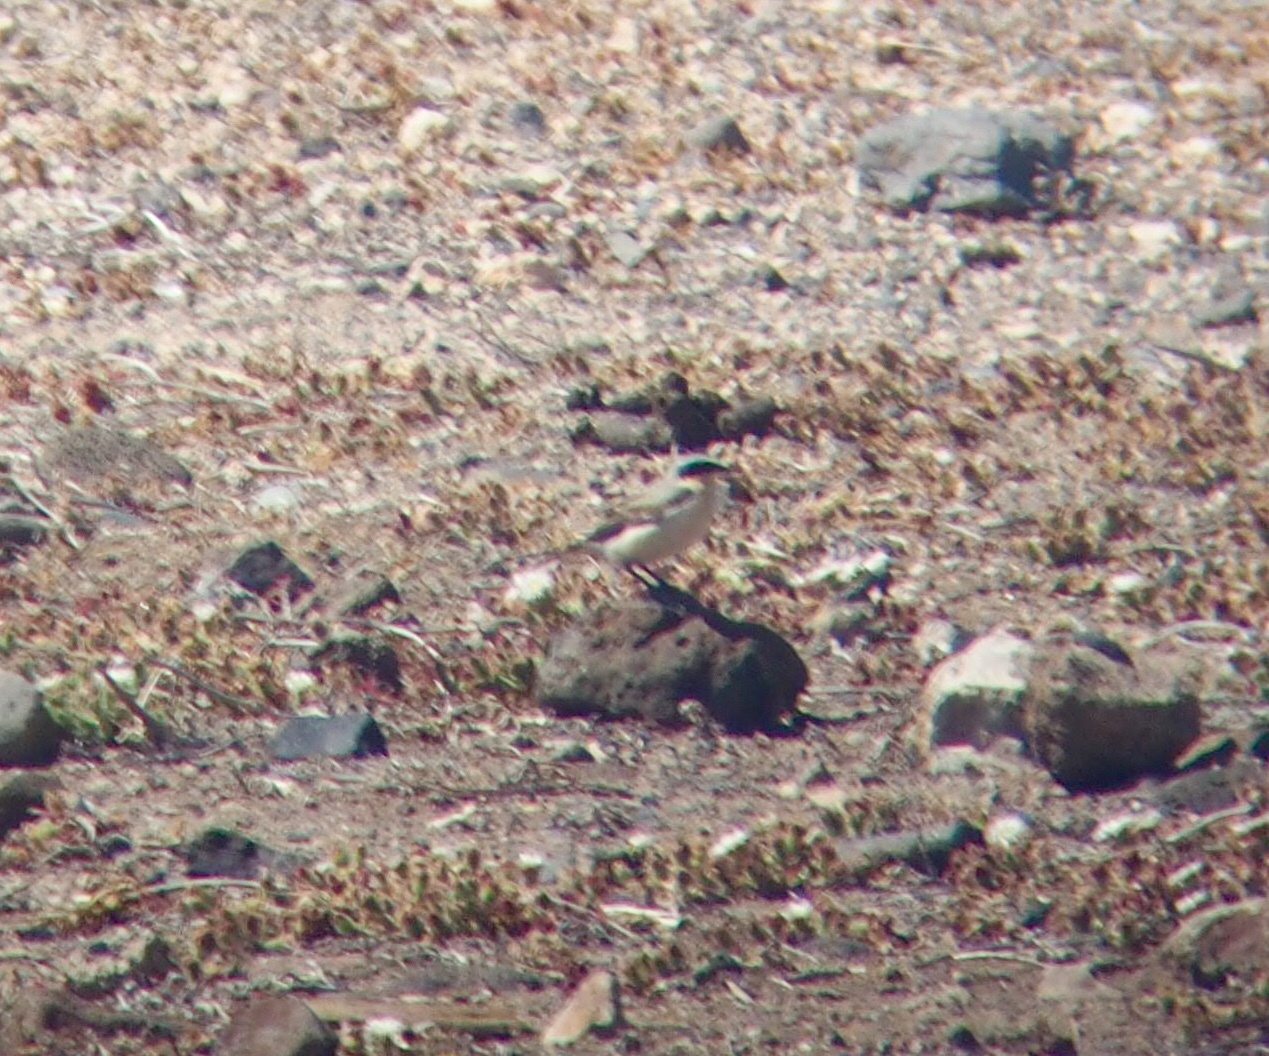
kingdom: Animalia
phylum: Chordata
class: Aves
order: Passeriformes
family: Muscicapidae
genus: Oenanthe
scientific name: Oenanthe oenanthe
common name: Northern wheatear
